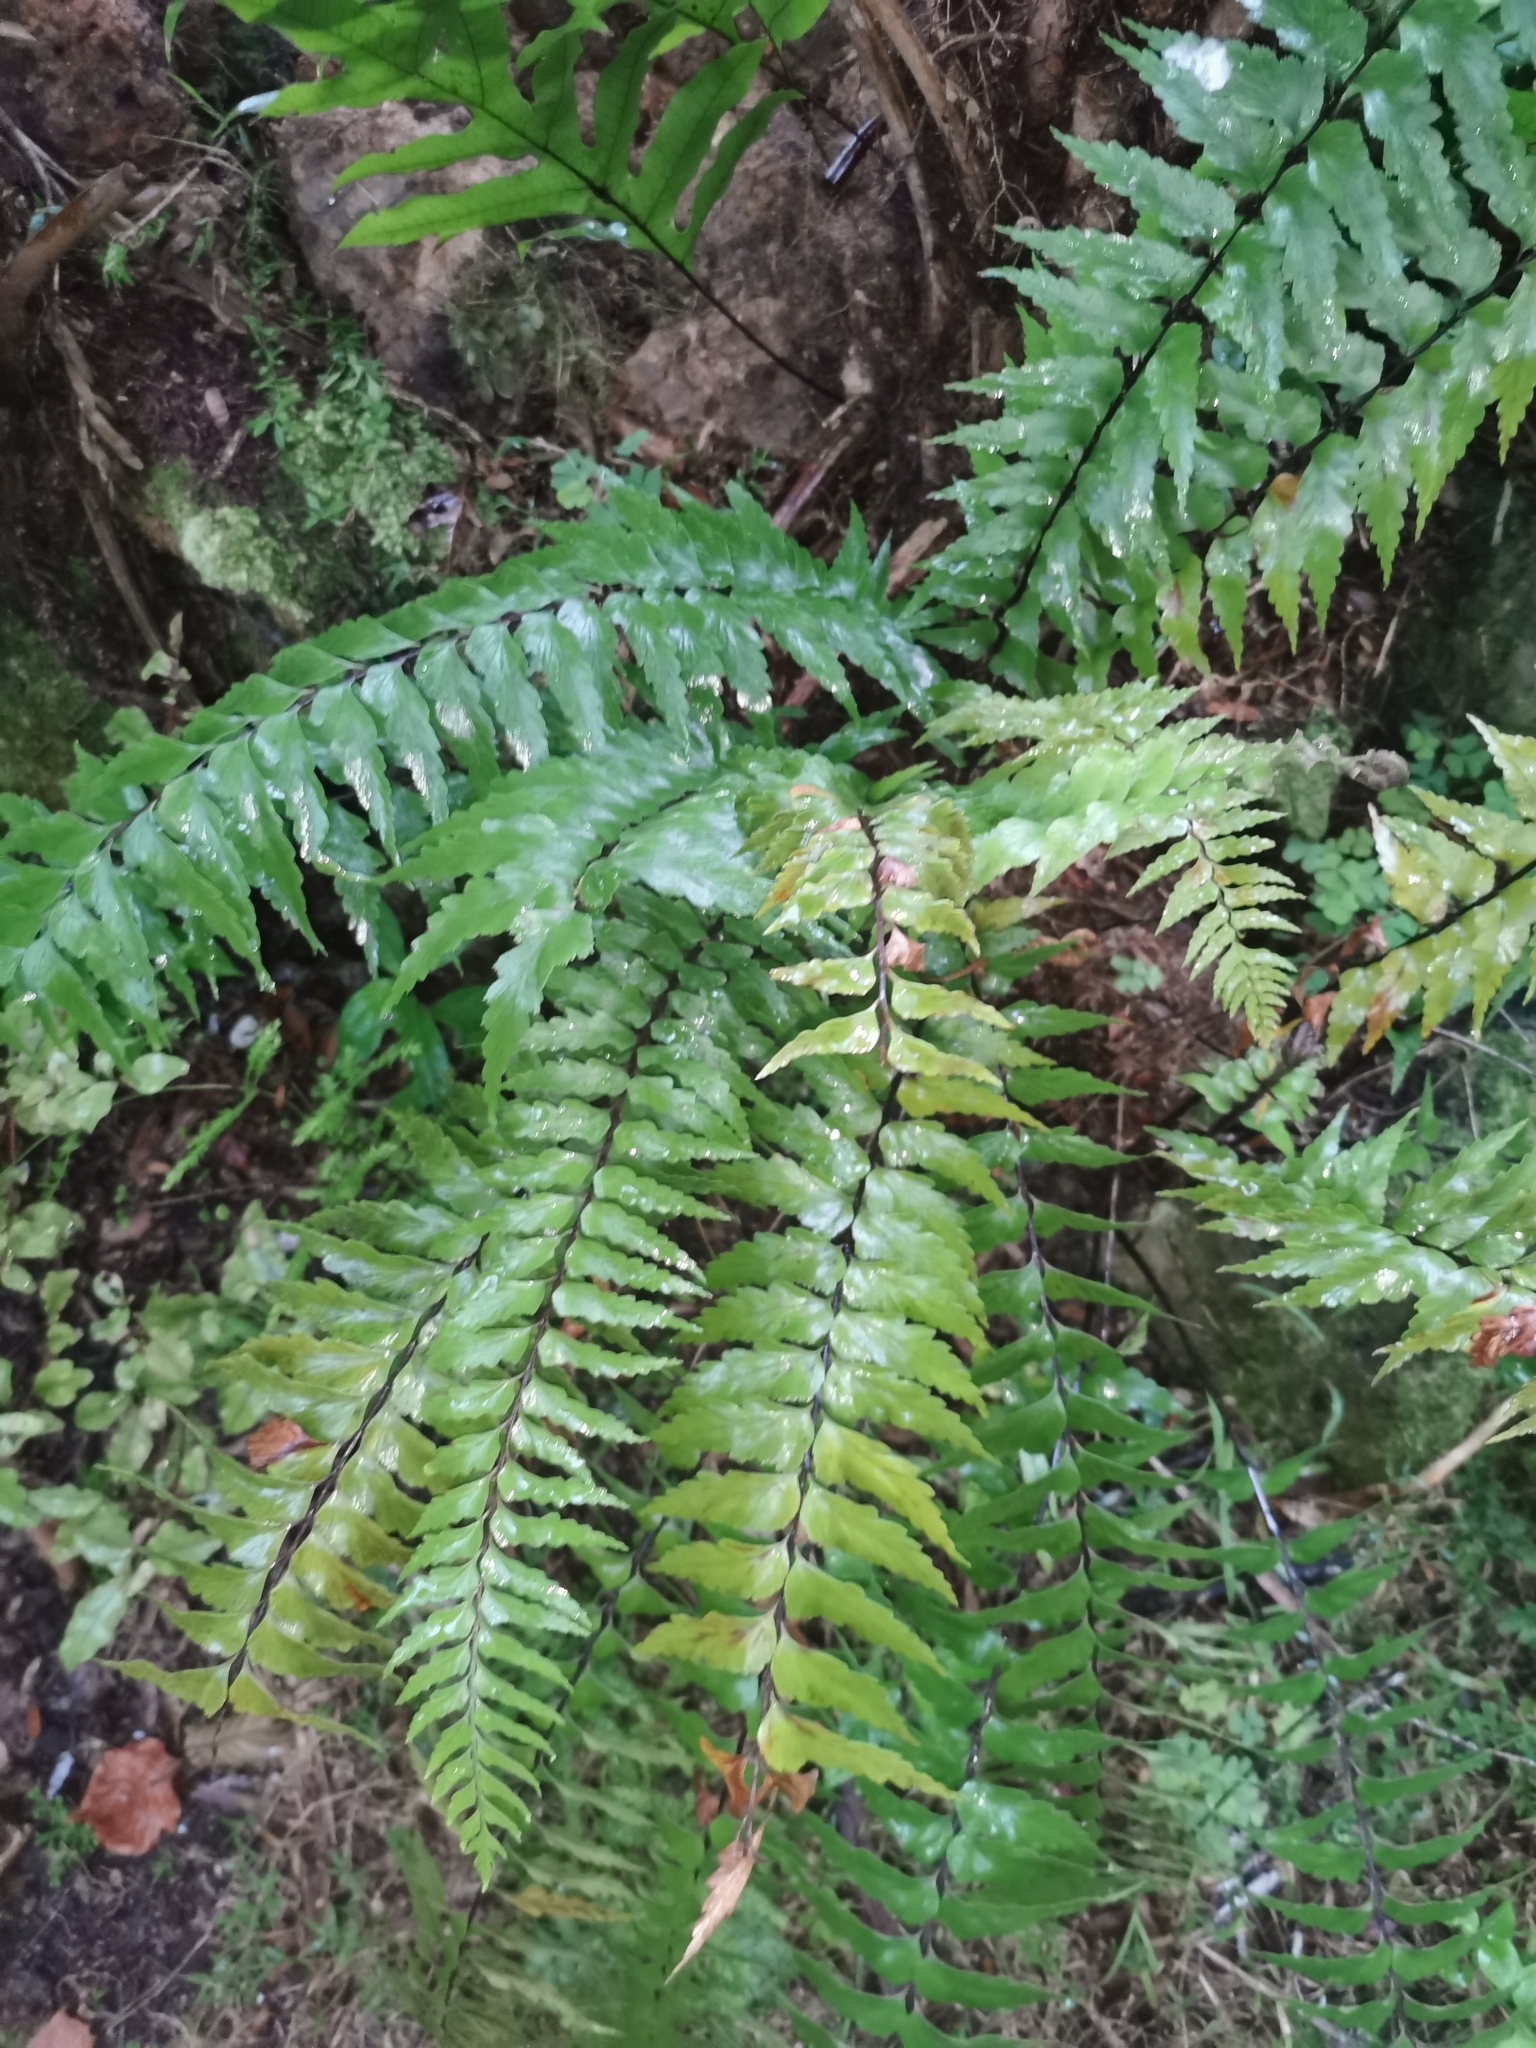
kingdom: Plantae
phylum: Tracheophyta
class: Polypodiopsida
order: Polypodiales
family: Aspleniaceae
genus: Asplenium
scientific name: Asplenium polyodon
